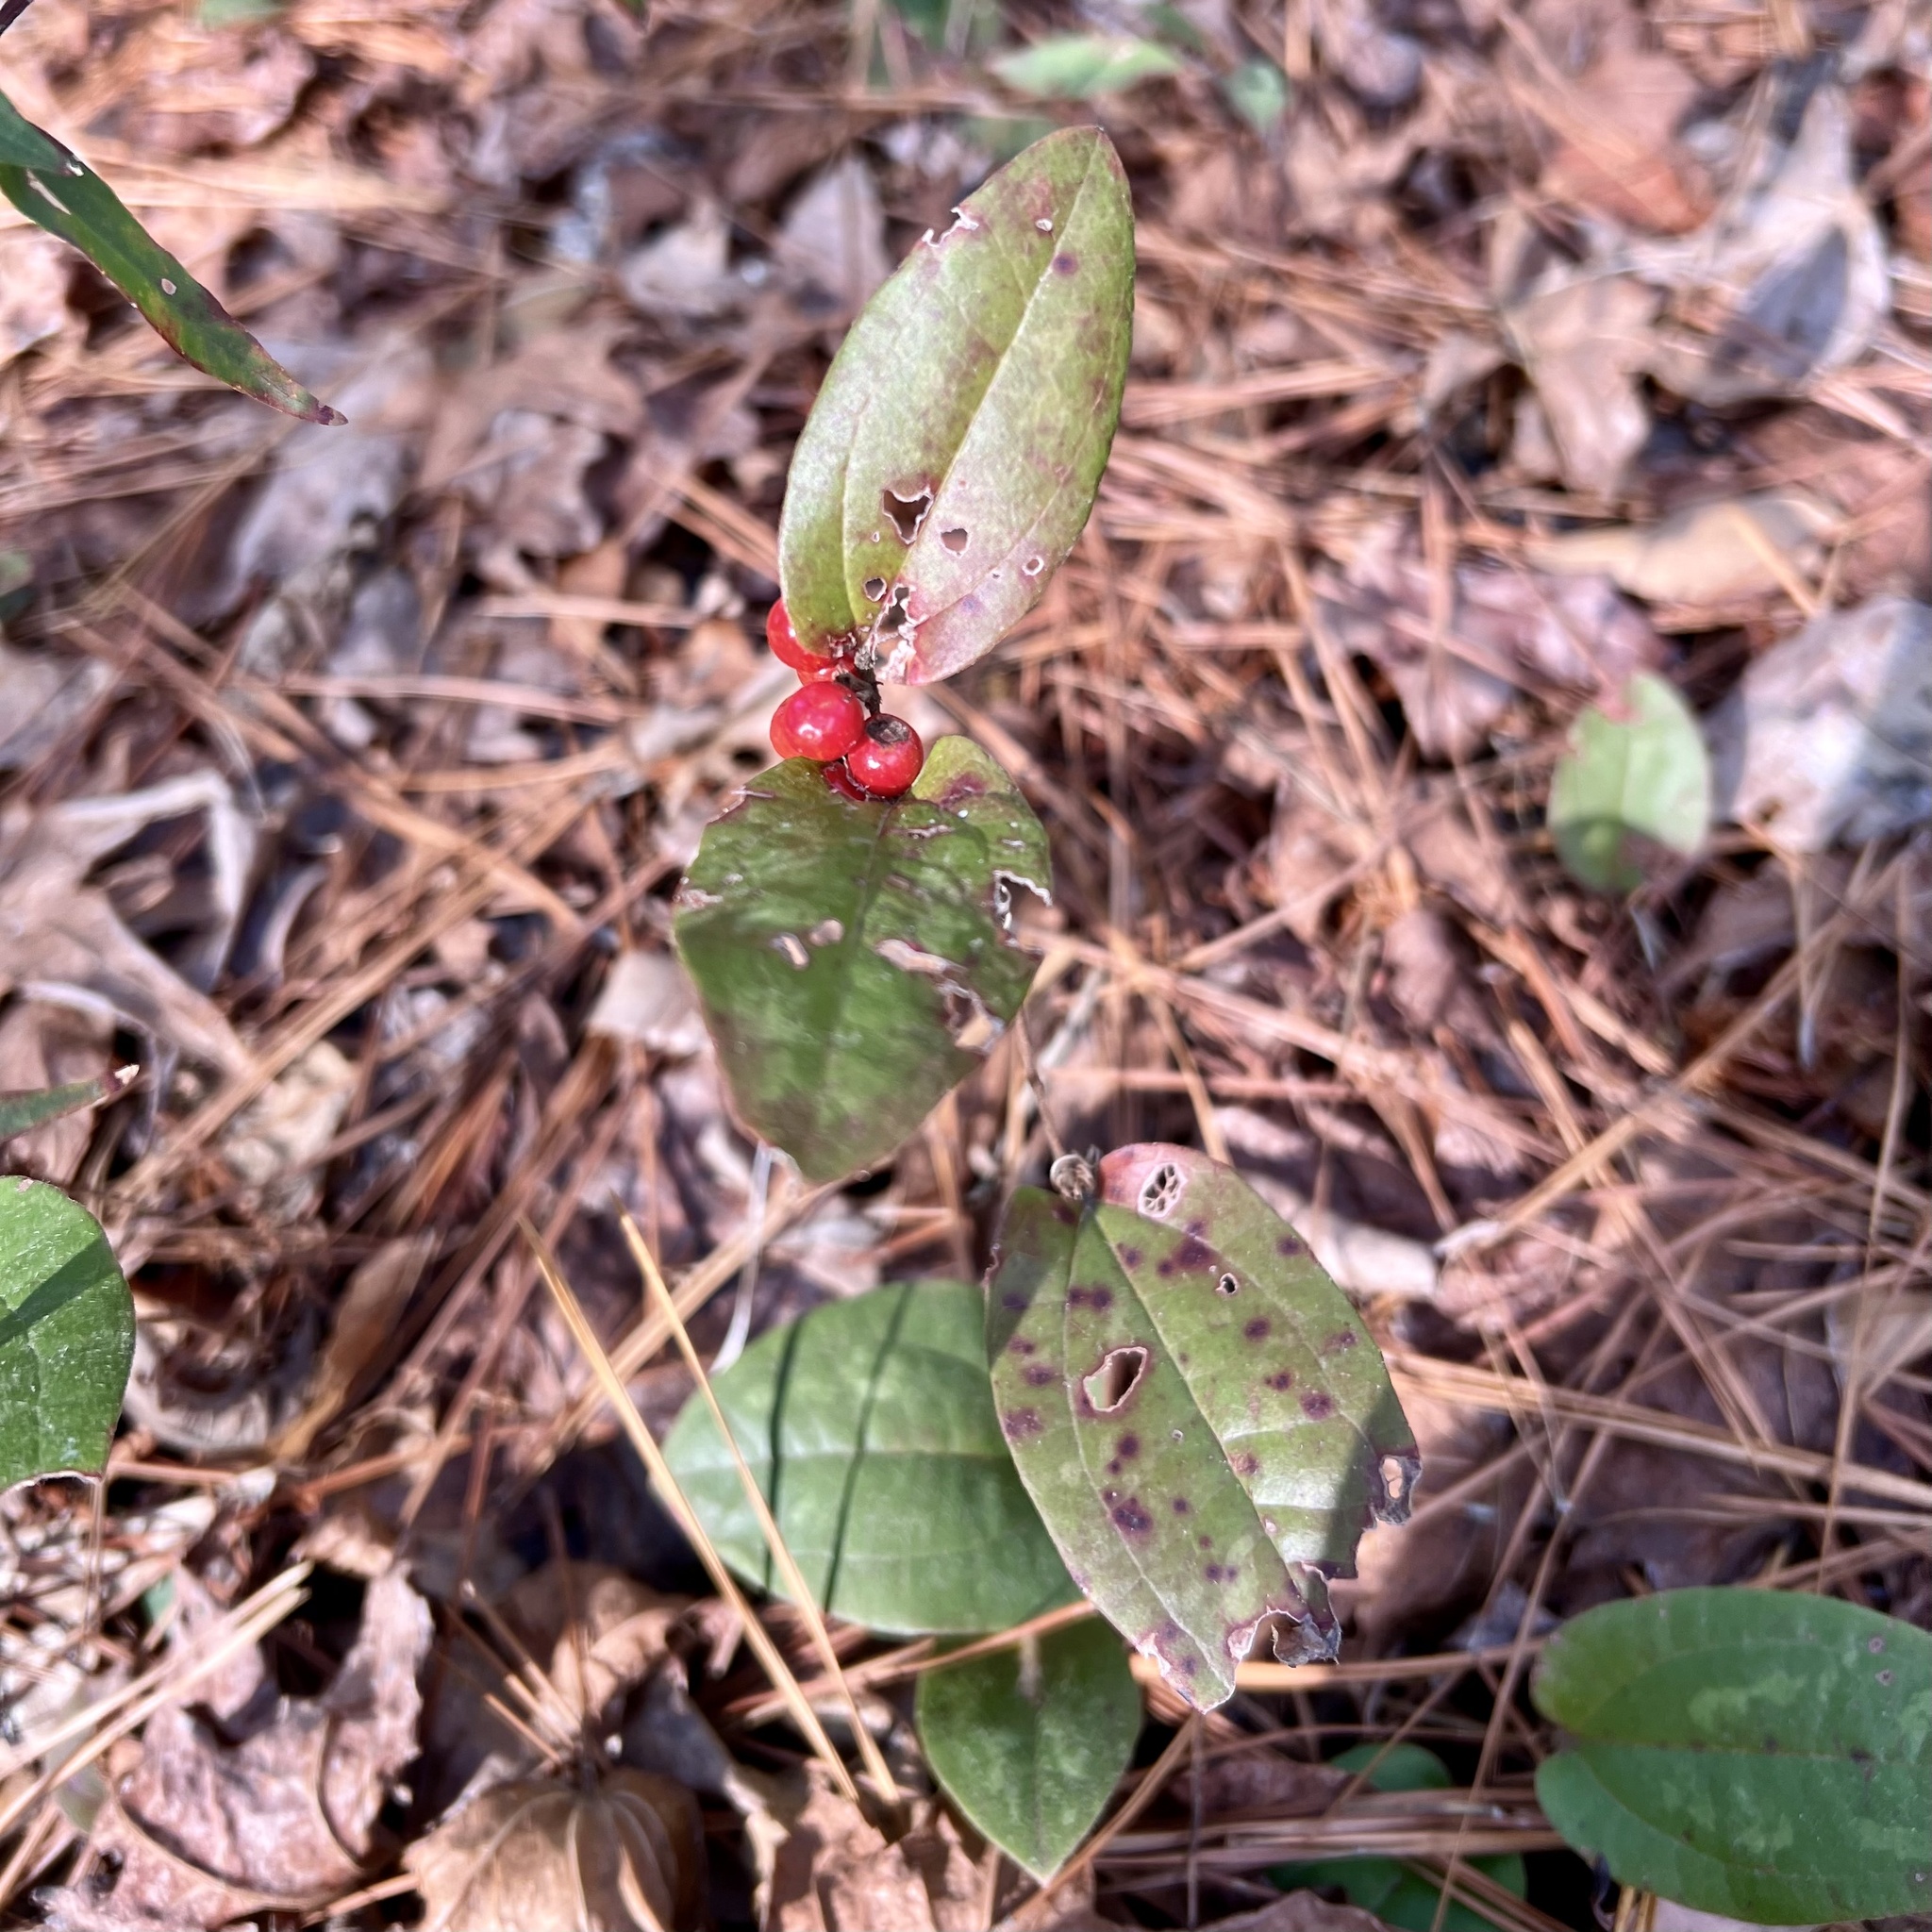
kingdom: Plantae
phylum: Tracheophyta
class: Liliopsida
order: Liliales
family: Smilacaceae
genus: Smilax
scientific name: Smilax pumila
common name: Sarsaparilla-vine
